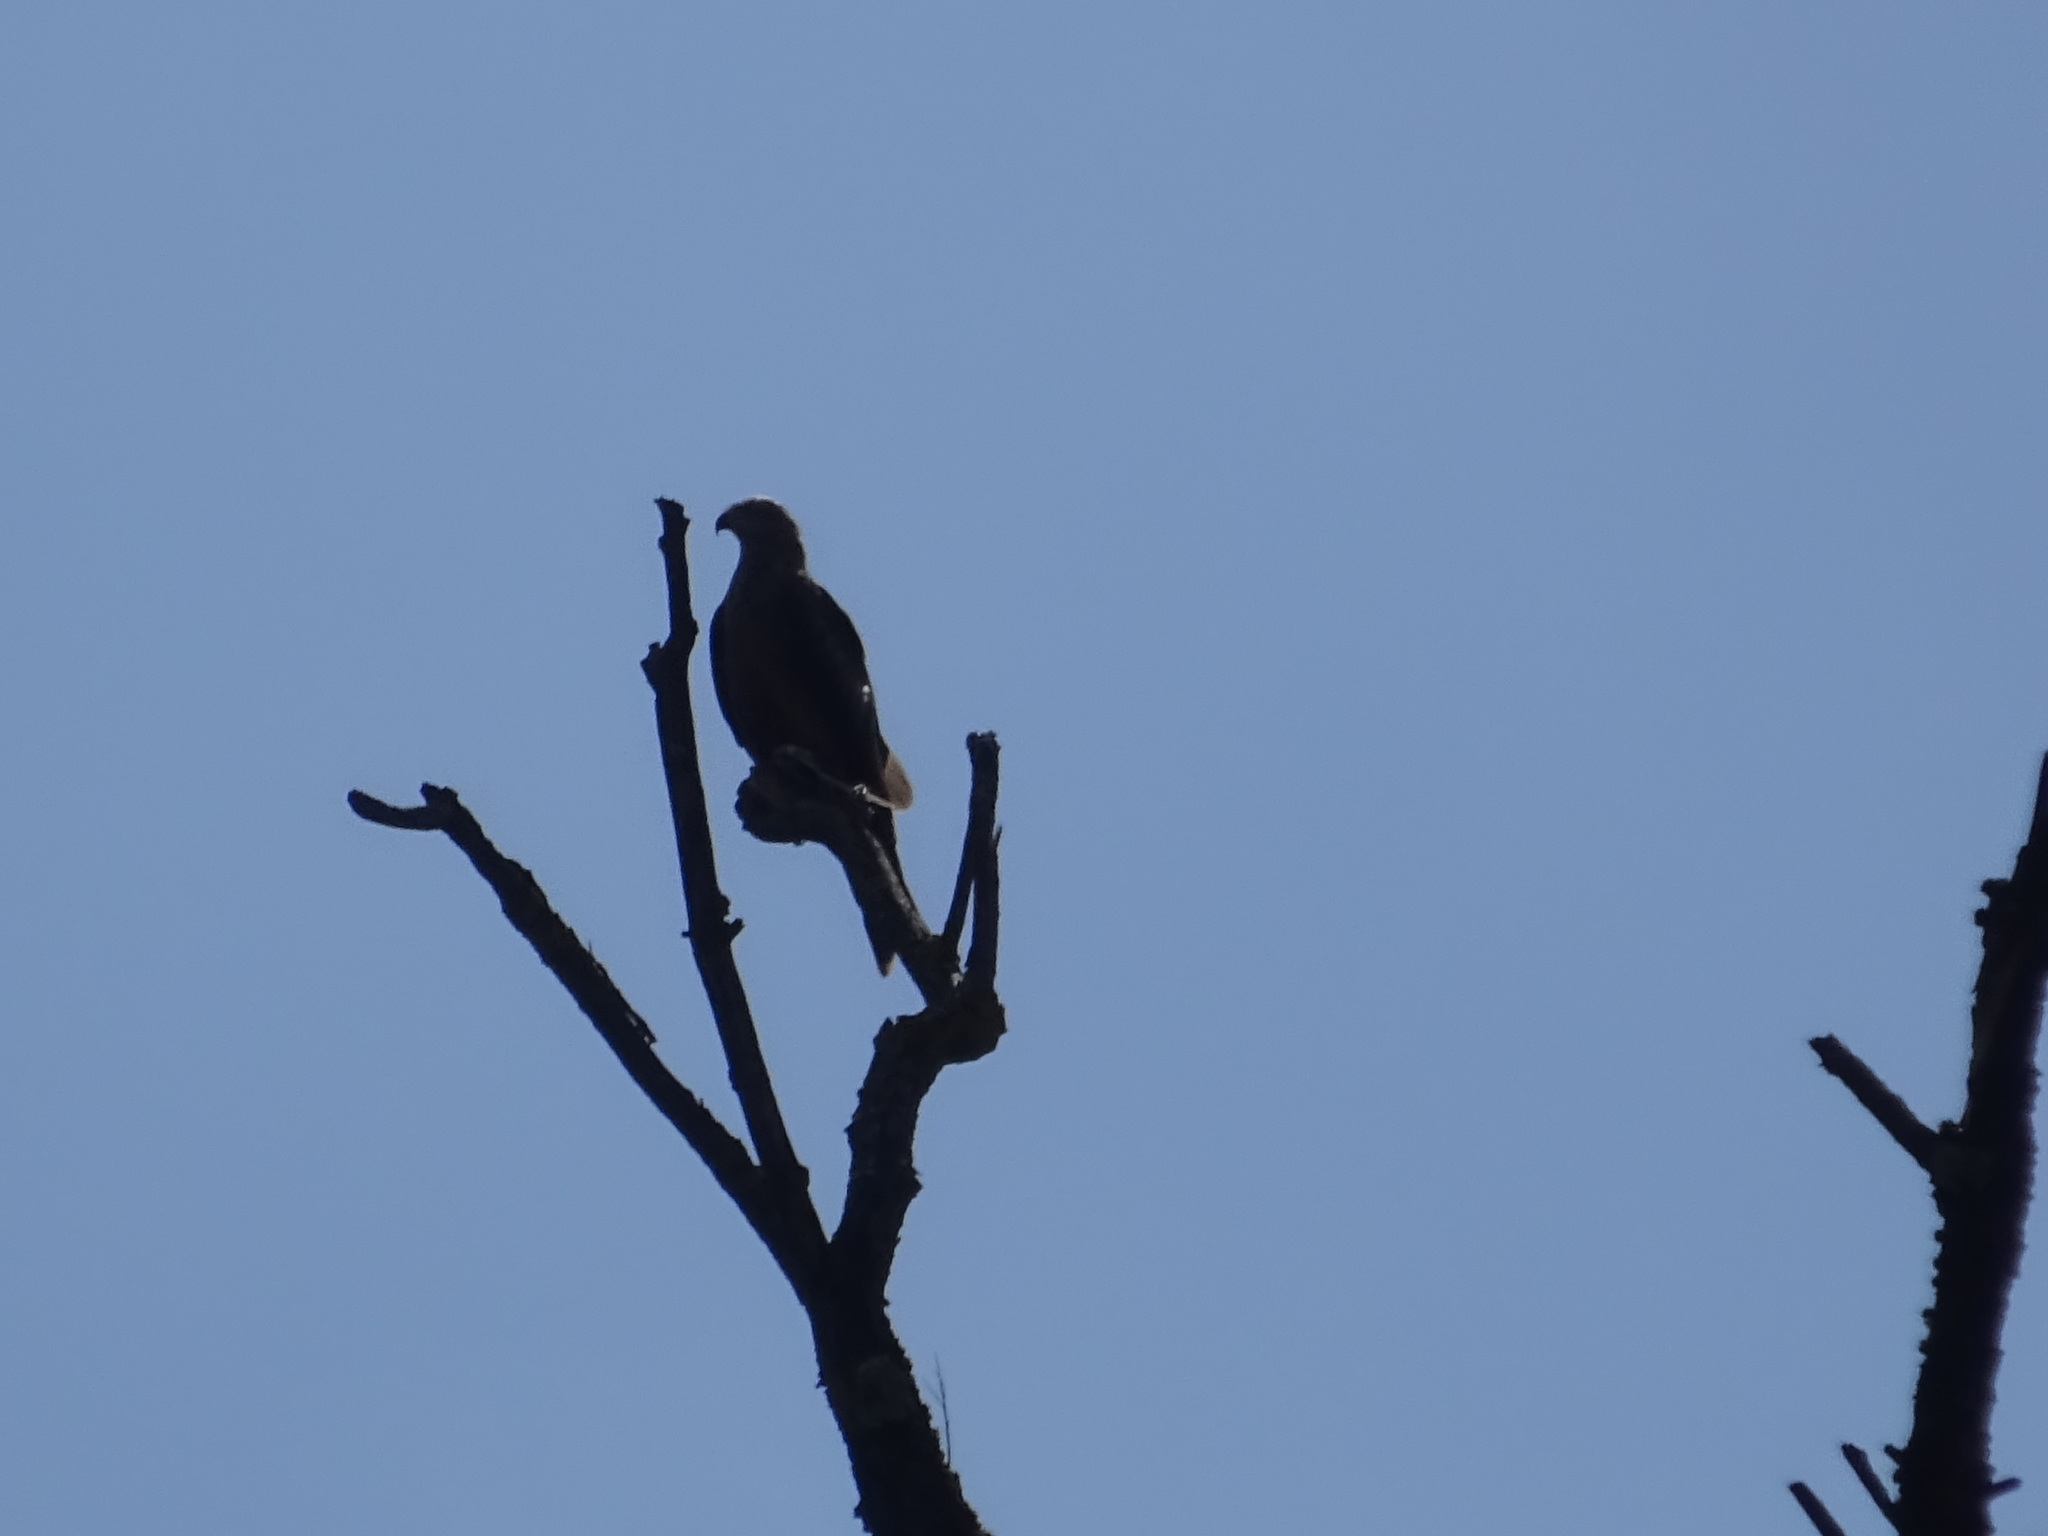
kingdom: Animalia
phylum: Chordata
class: Aves
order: Accipitriformes
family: Accipitridae
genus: Milvus
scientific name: Milvus migrans
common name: Black kite
